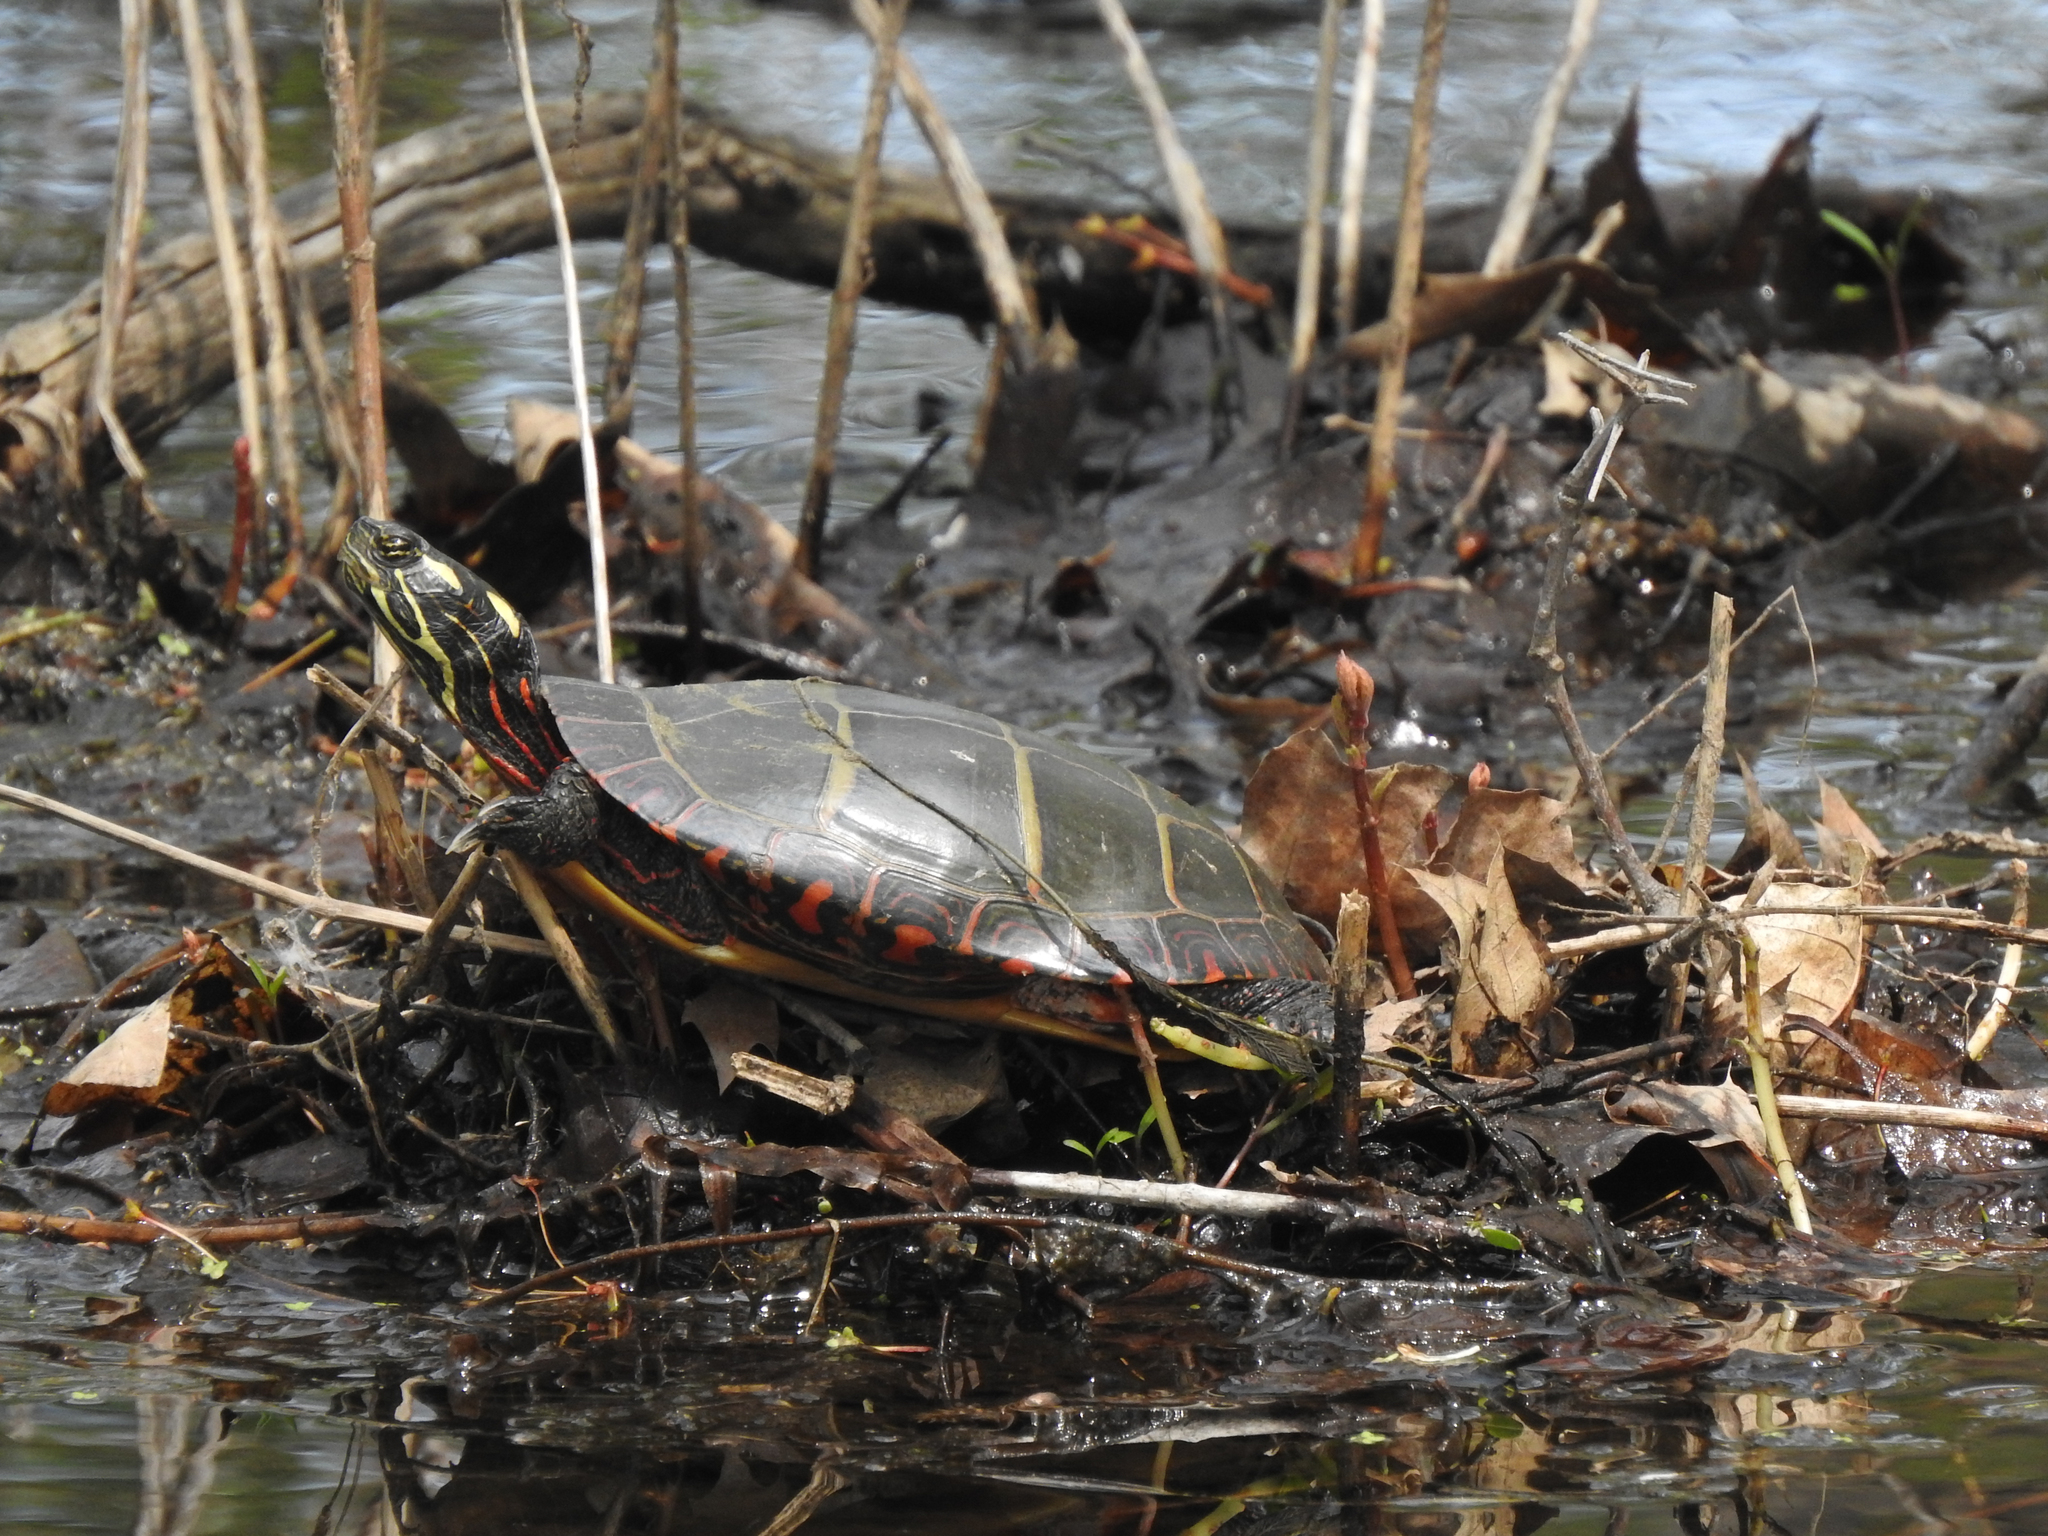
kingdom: Animalia
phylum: Chordata
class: Testudines
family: Emydidae
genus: Chrysemys
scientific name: Chrysemys picta
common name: Painted turtle
